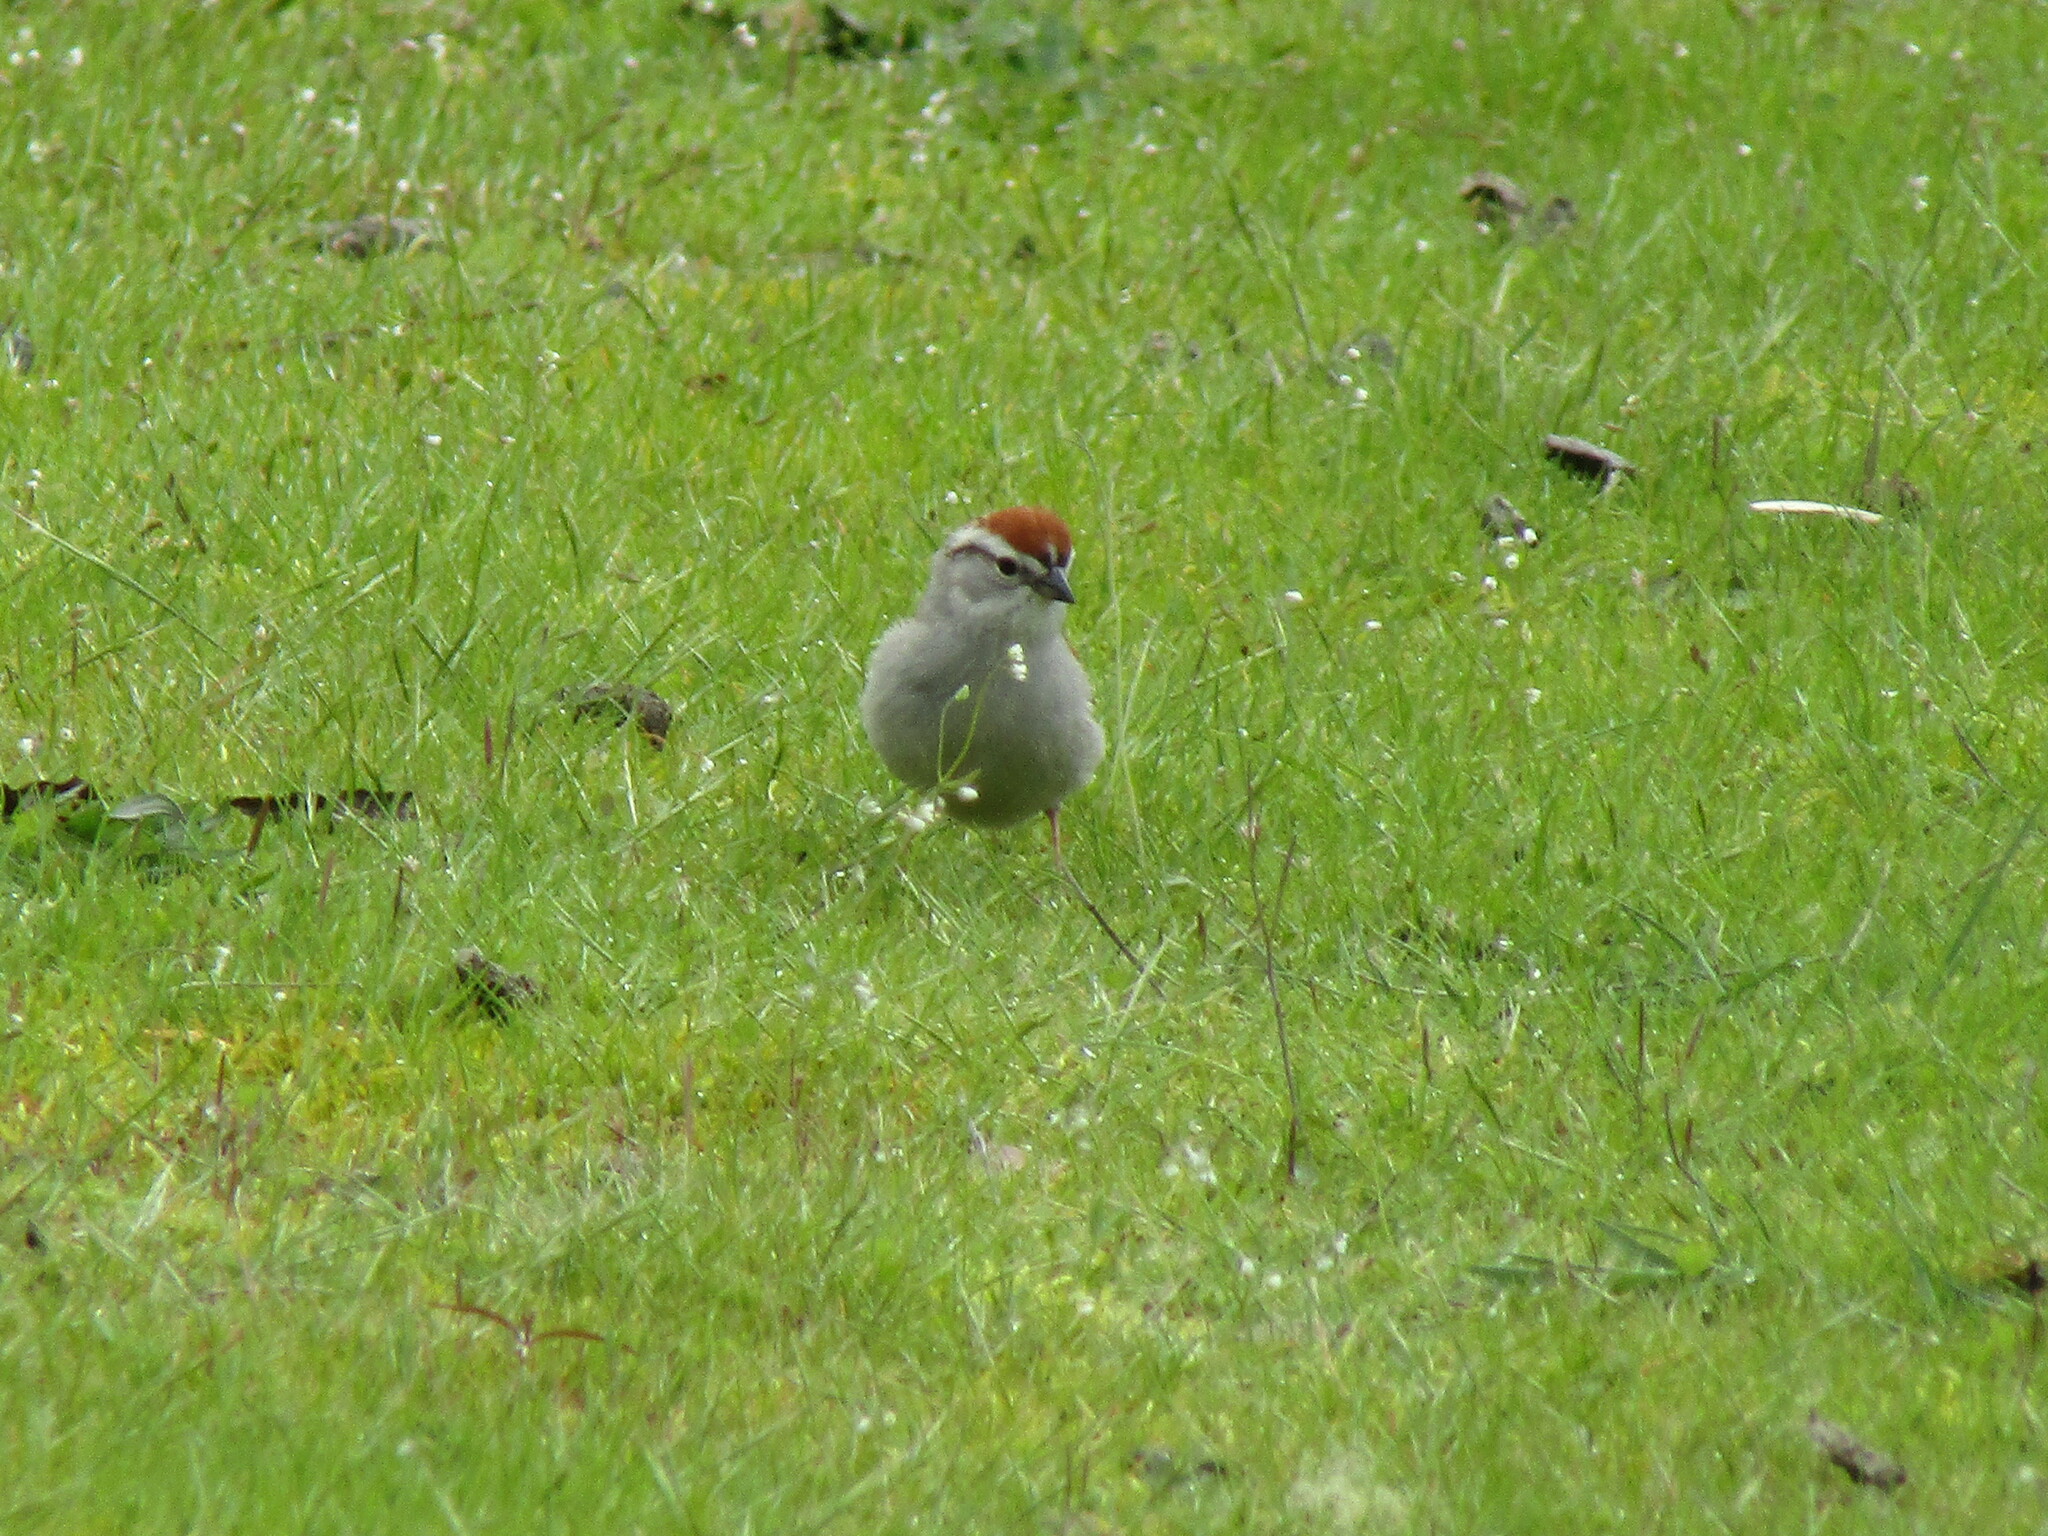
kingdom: Animalia
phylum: Chordata
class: Aves
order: Passeriformes
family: Passerellidae
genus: Spizella
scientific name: Spizella passerina
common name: Chipping sparrow
